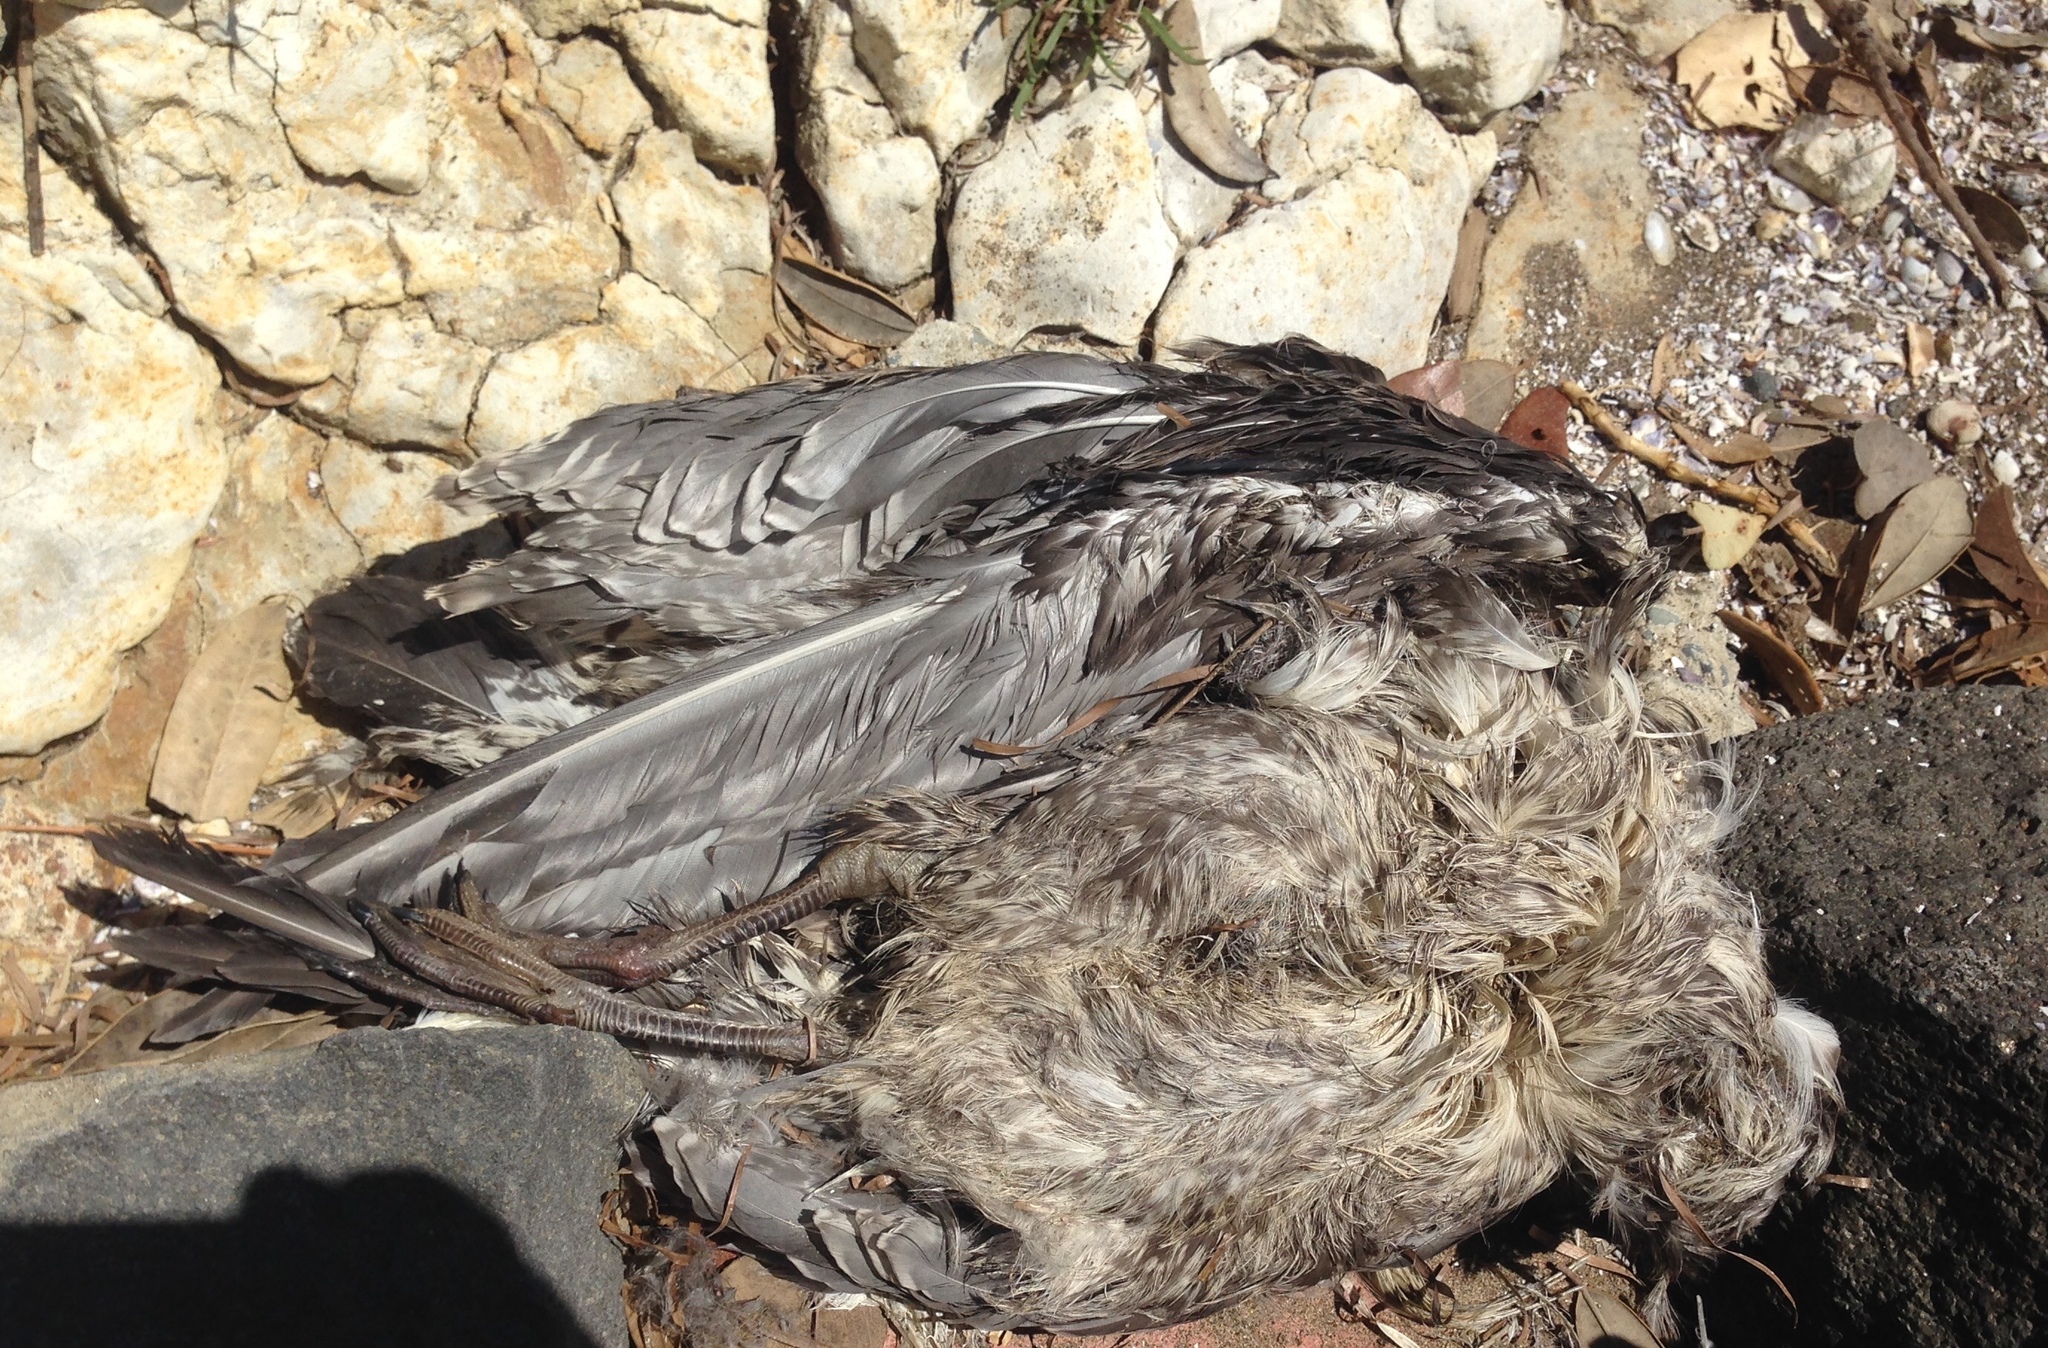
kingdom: Animalia
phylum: Chordata
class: Aves
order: Charadriiformes
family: Laridae
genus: Larus
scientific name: Larus dominicanus
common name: Kelp gull
